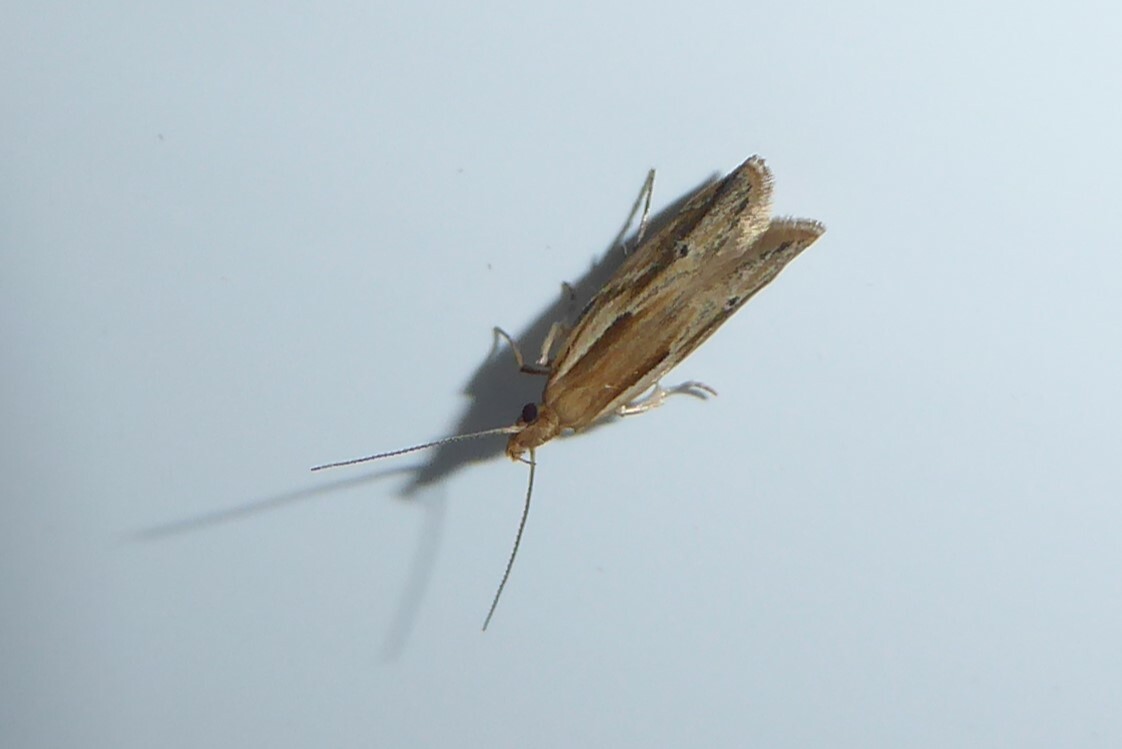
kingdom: Animalia
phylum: Arthropoda
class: Insecta
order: Lepidoptera
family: Depressariidae
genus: Eutorna
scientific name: Eutorna symmorpha
